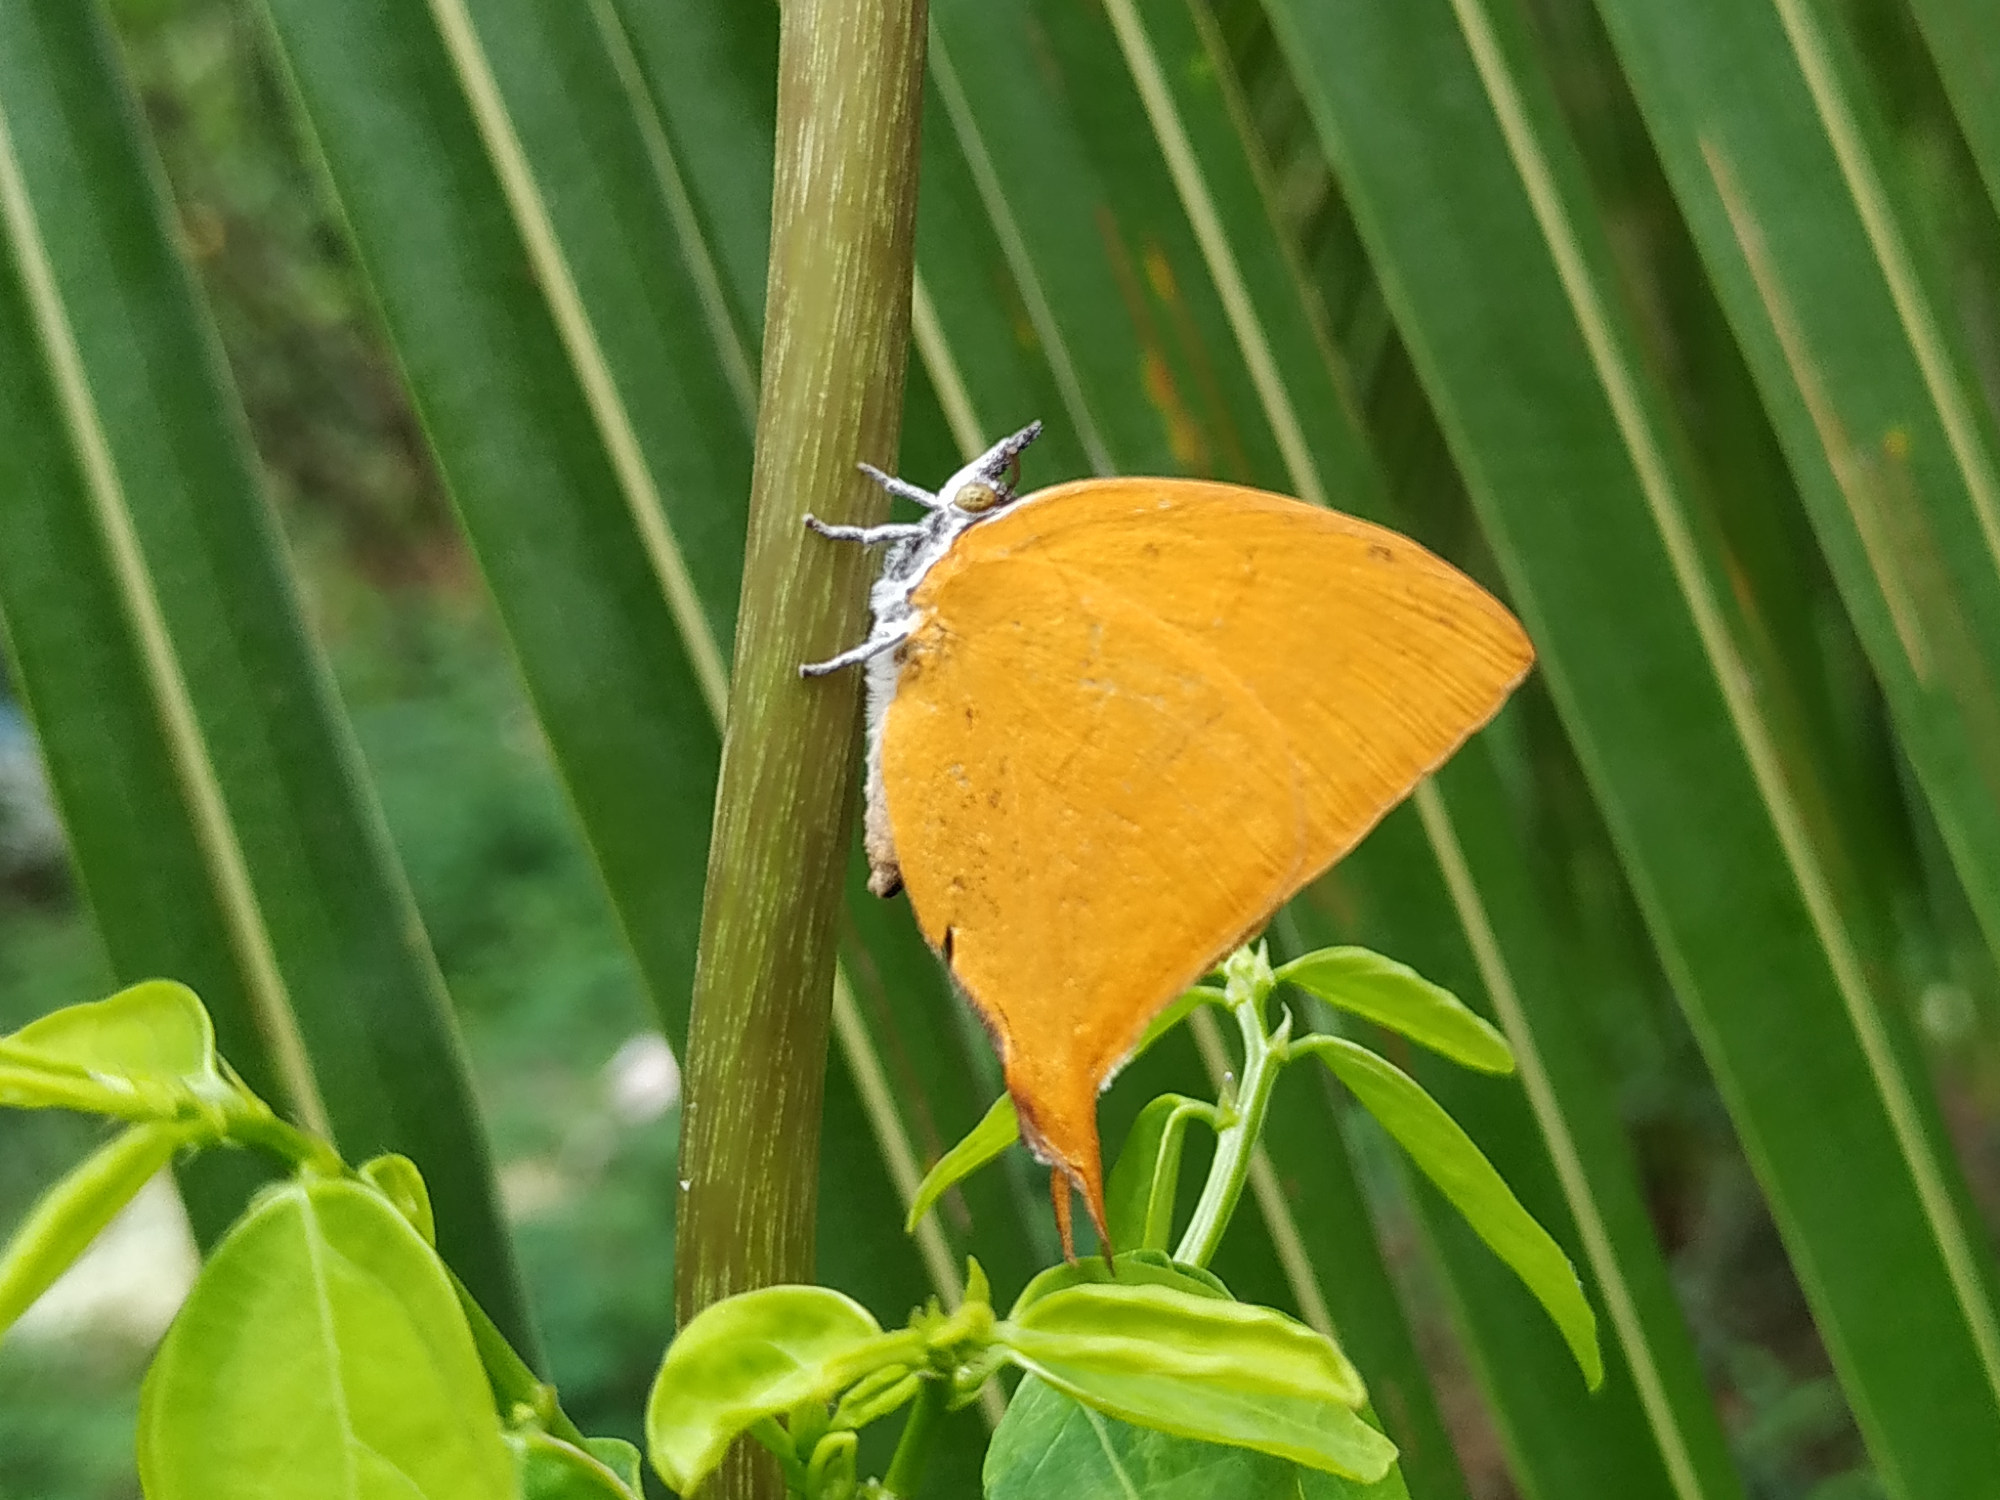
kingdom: Animalia
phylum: Arthropoda
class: Insecta
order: Lepidoptera
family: Lycaenidae
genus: Loxura
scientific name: Loxura atymnus
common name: Common yamfly
